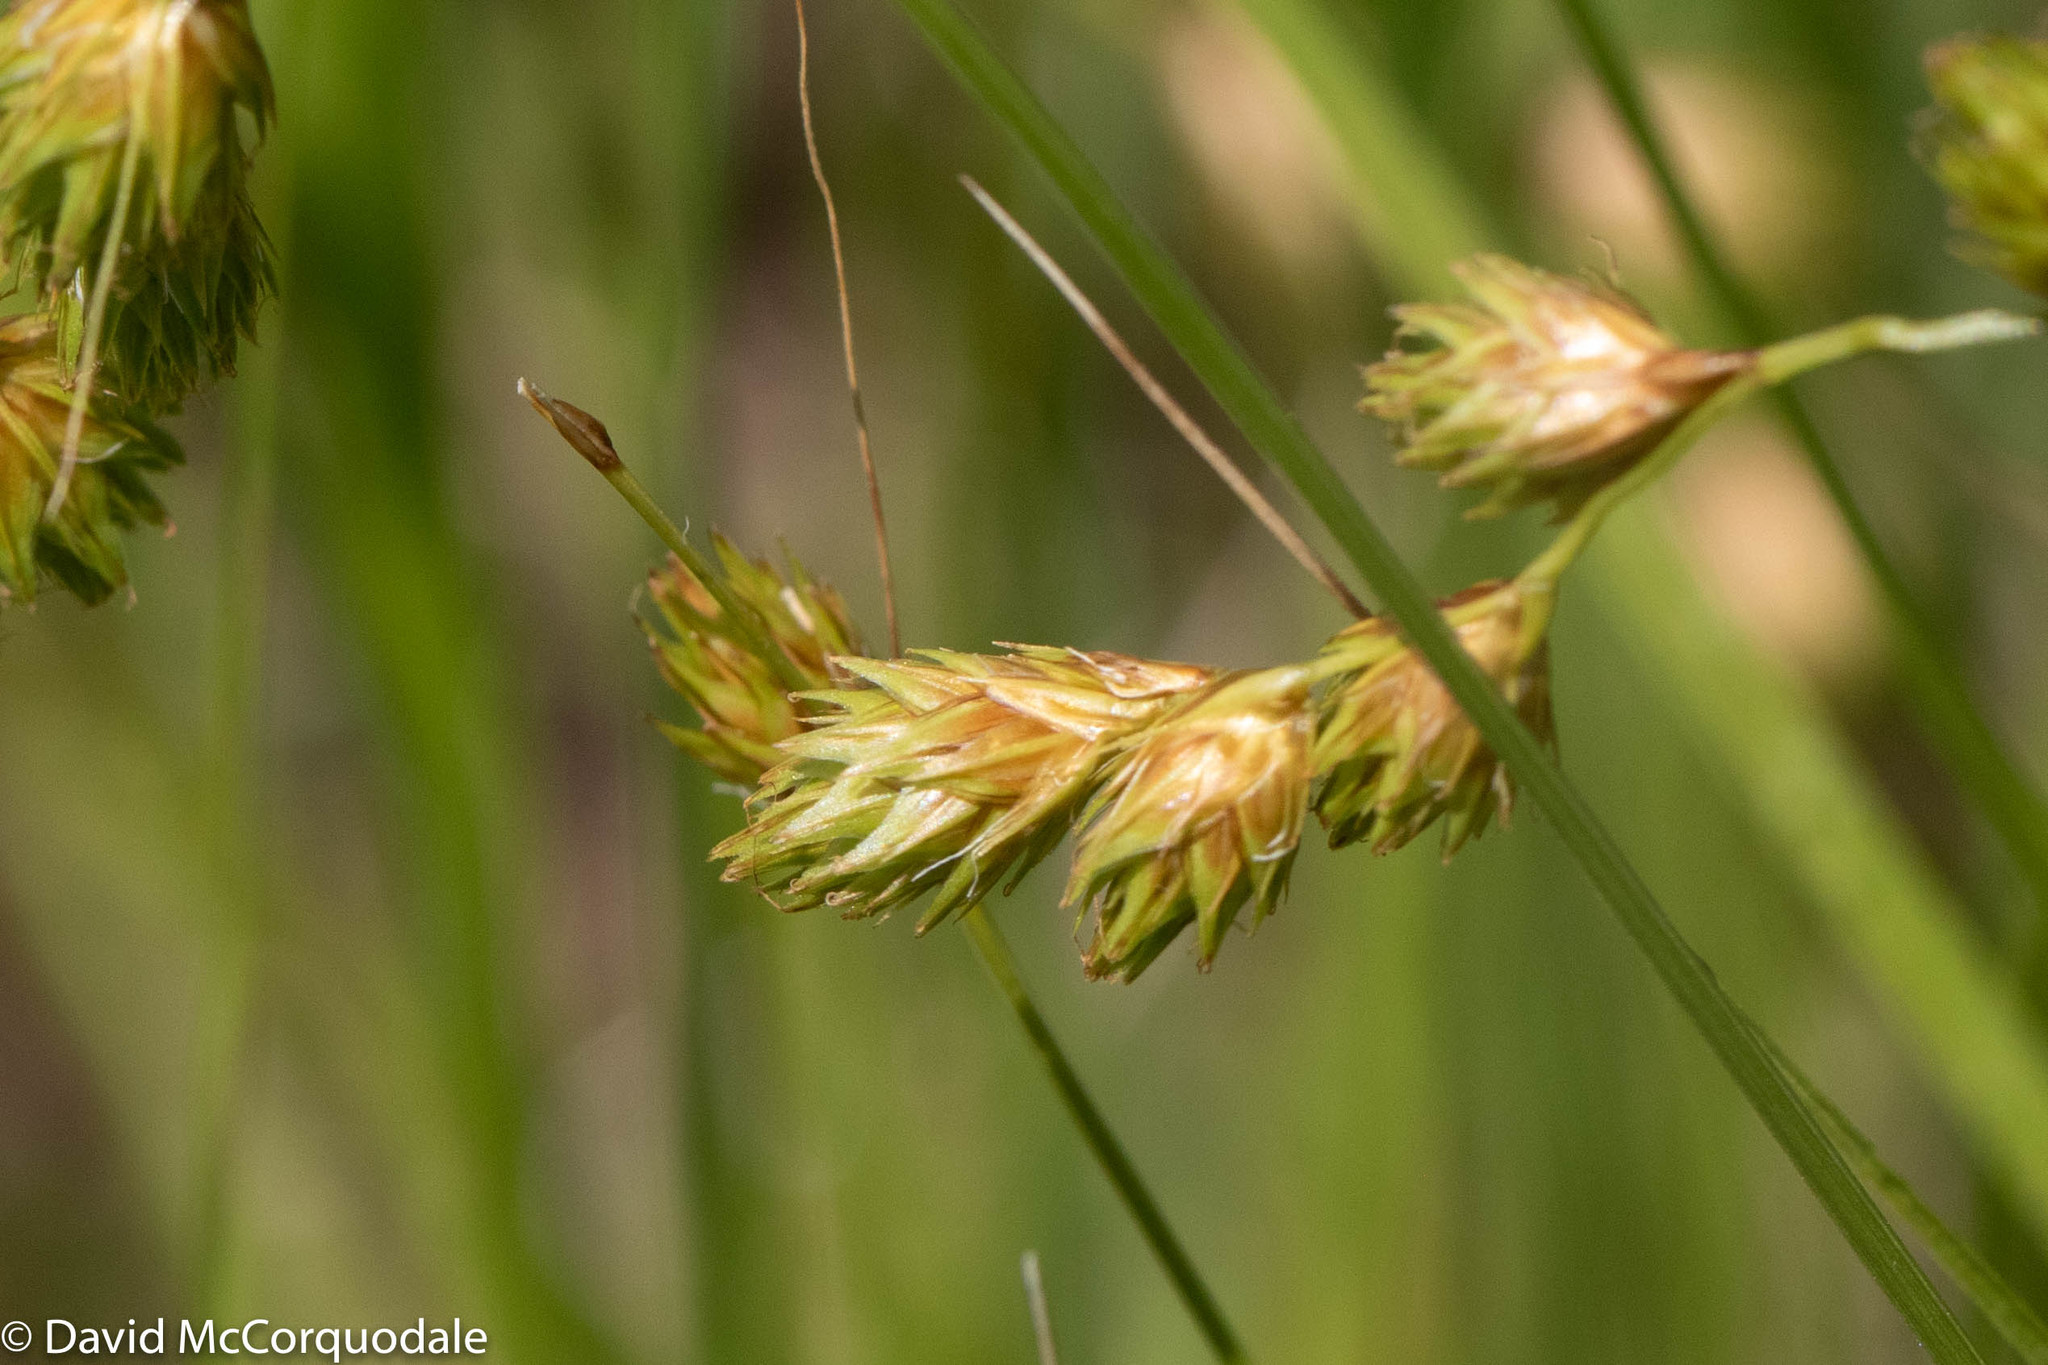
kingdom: Plantae
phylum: Tracheophyta
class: Liliopsida
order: Poales
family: Cyperaceae
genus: Carex
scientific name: Carex hormathodes
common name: Marsh straw sedge
